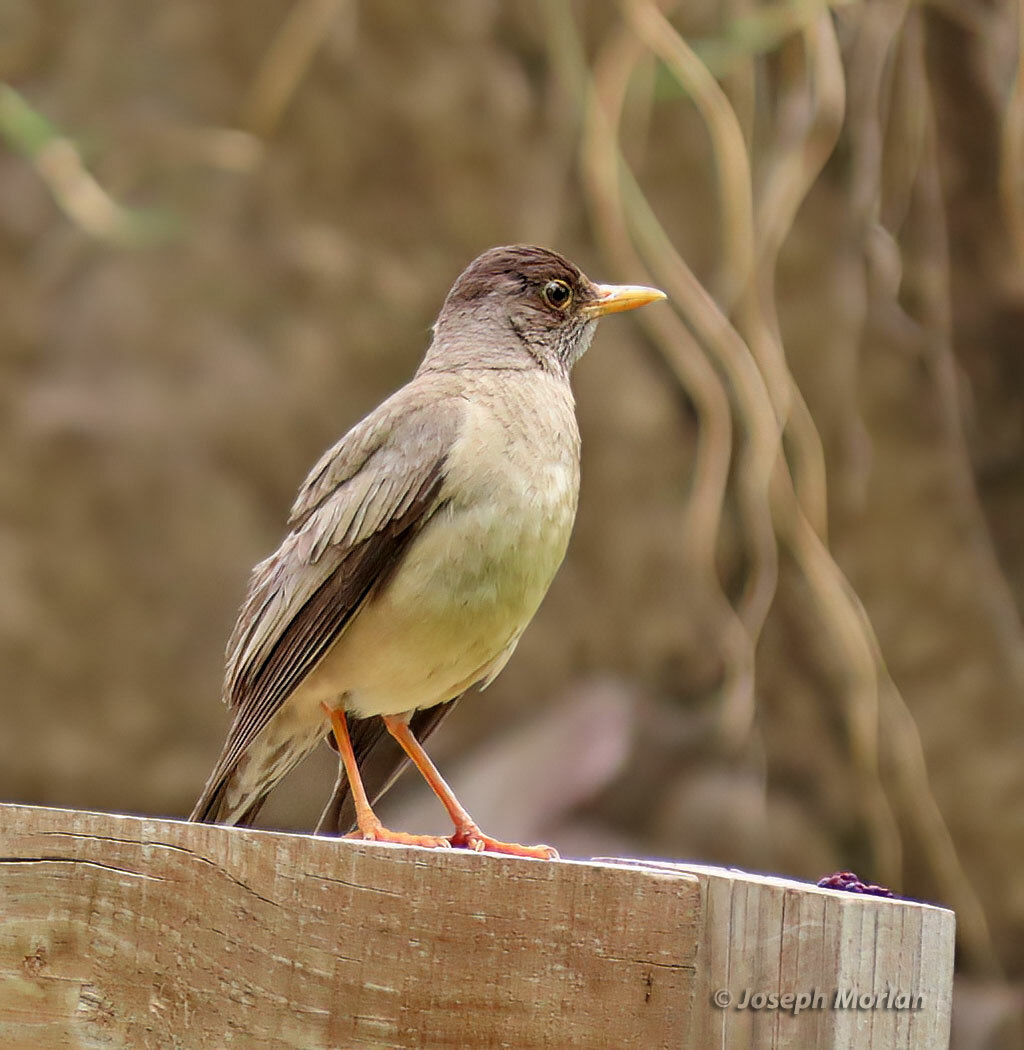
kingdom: Animalia
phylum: Chordata
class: Aves
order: Passeriformes
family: Turdidae
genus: Turdus
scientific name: Turdus falcklandii
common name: Austral thrush
